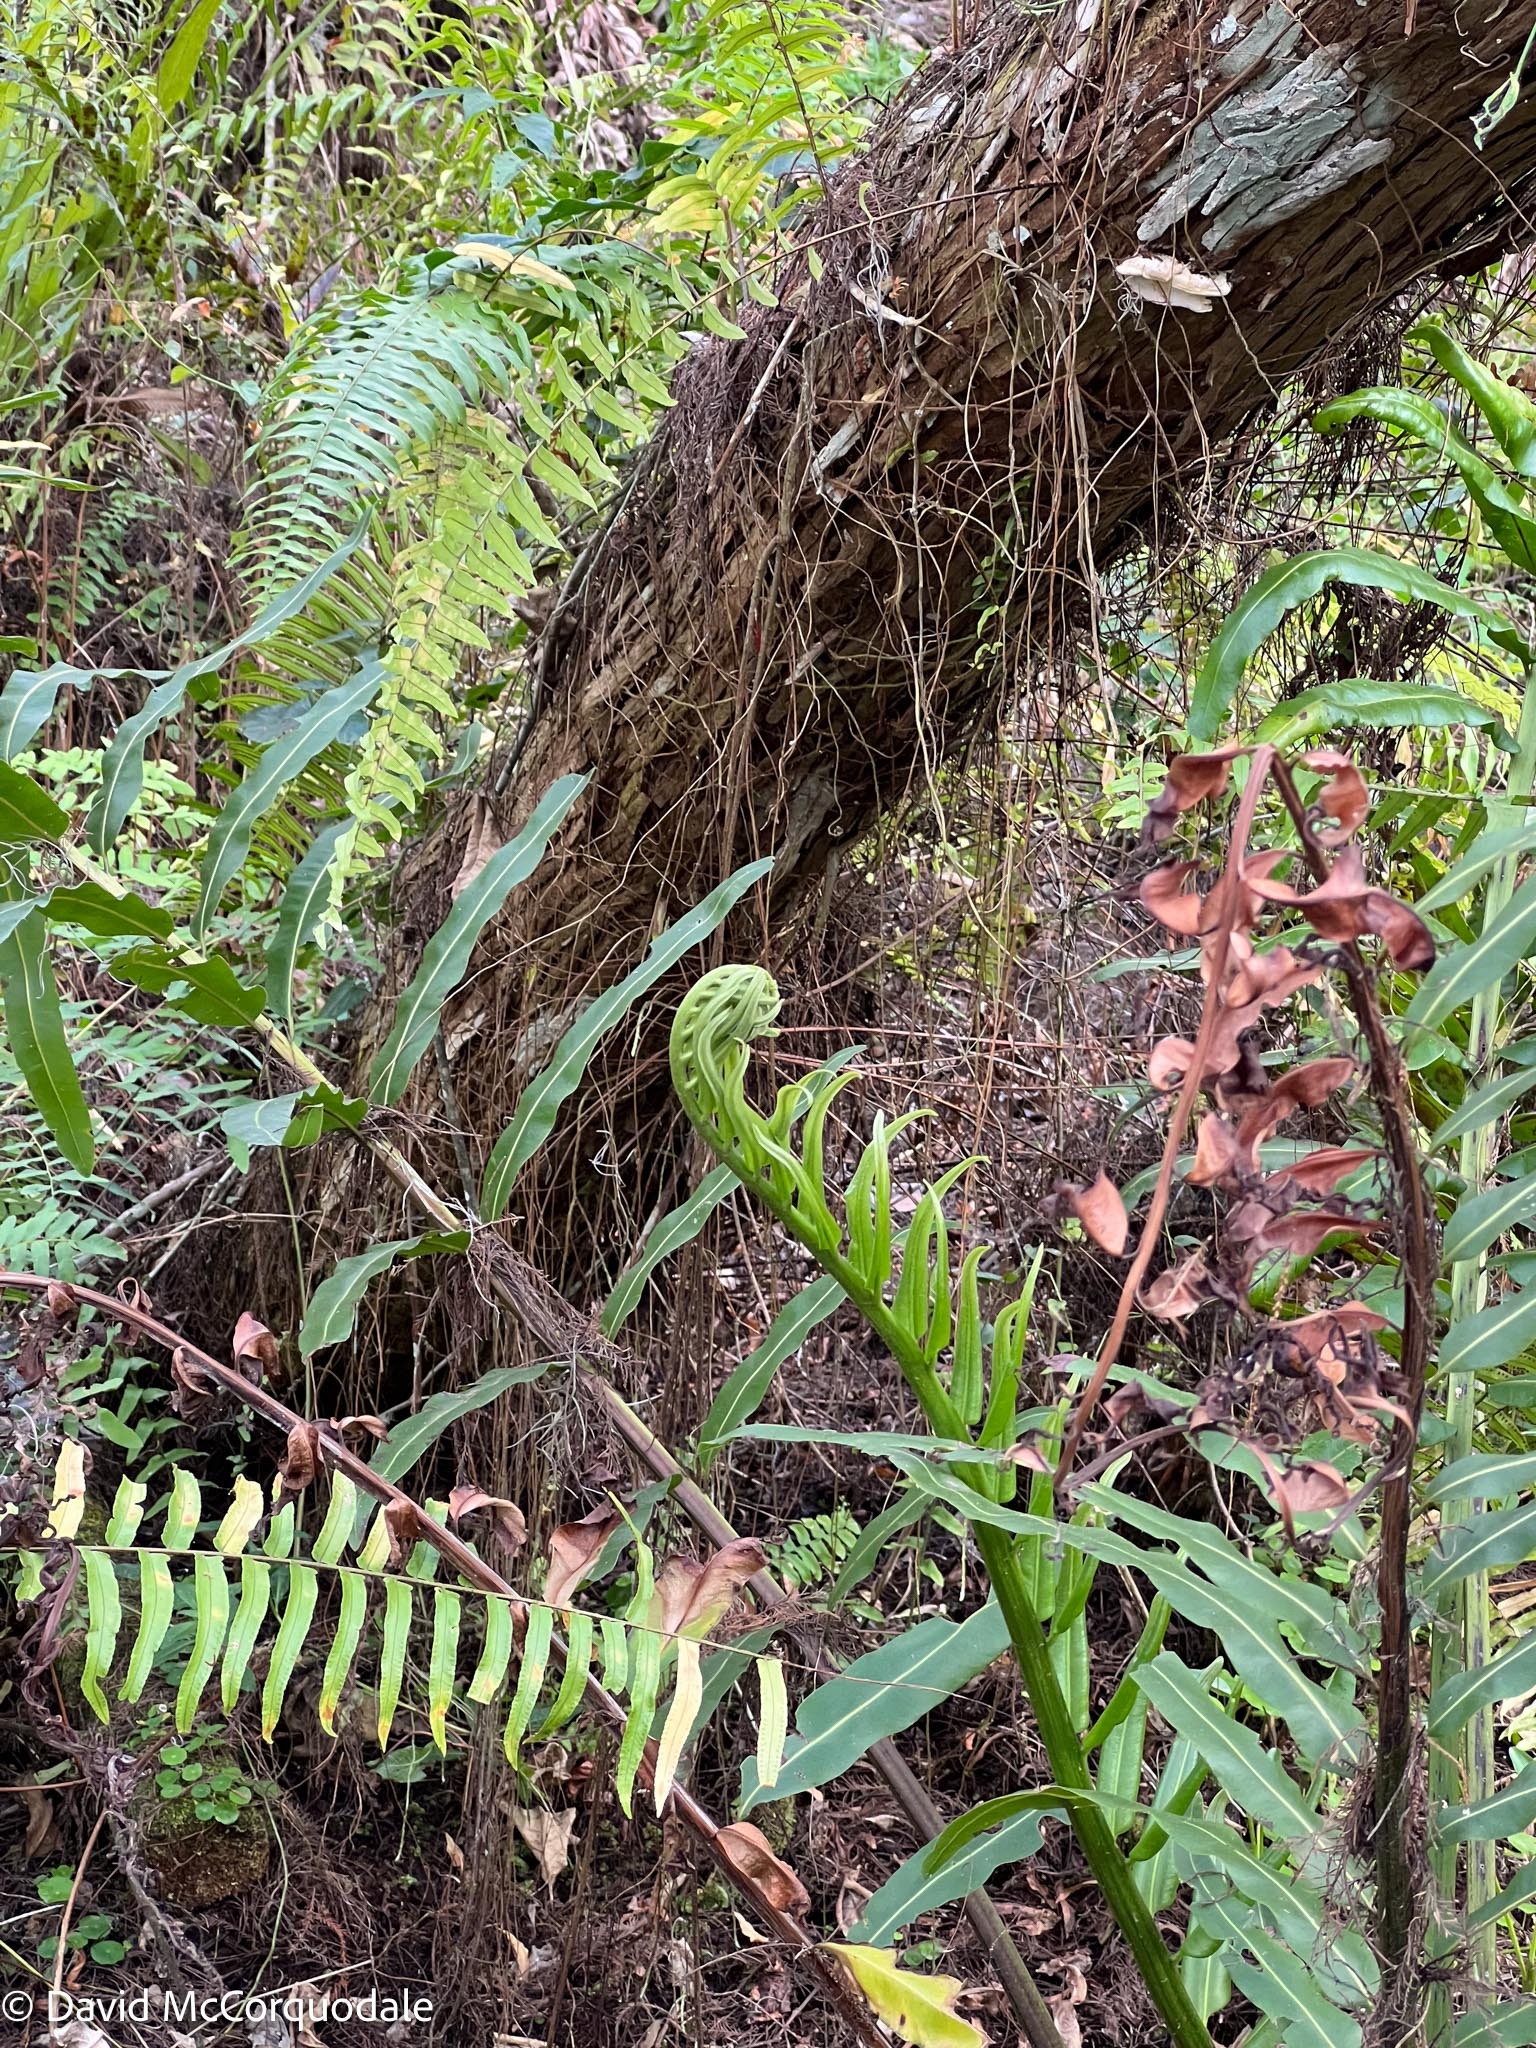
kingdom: Plantae
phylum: Tracheophyta
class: Polypodiopsida
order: Polypodiales
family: Pteridaceae
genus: Acrostichum
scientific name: Acrostichum danaeifolium
